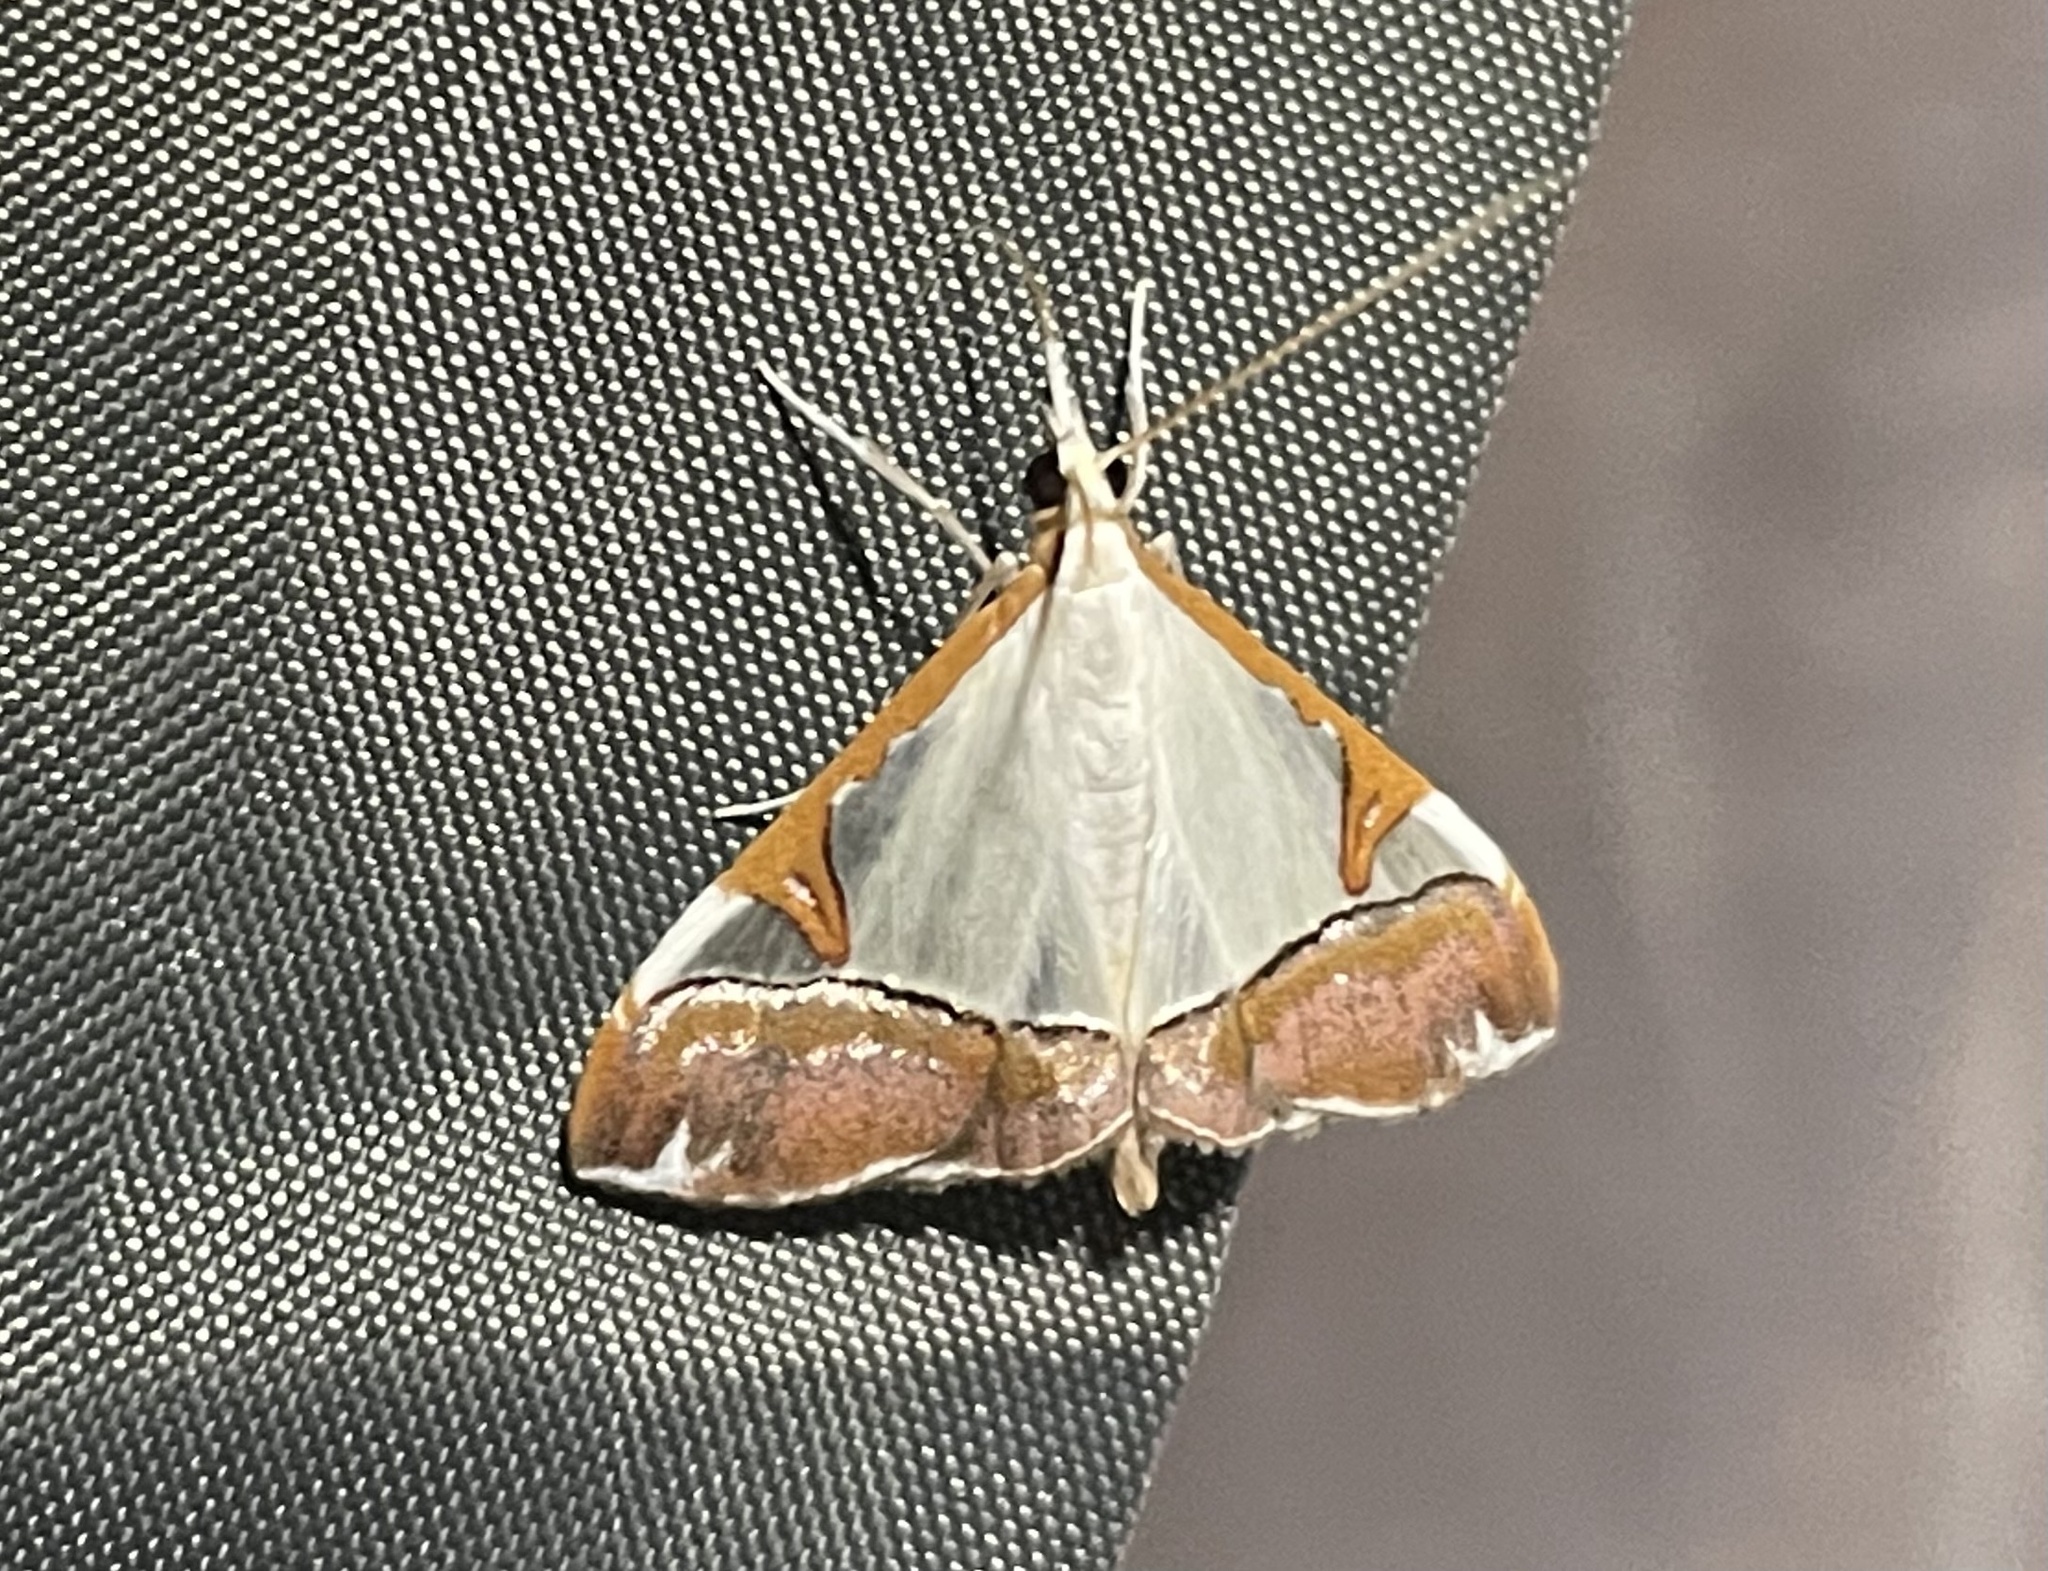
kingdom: Animalia
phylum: Arthropoda
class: Insecta
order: Lepidoptera
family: Crambidae
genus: Autocharis
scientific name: Autocharis margaritalis
